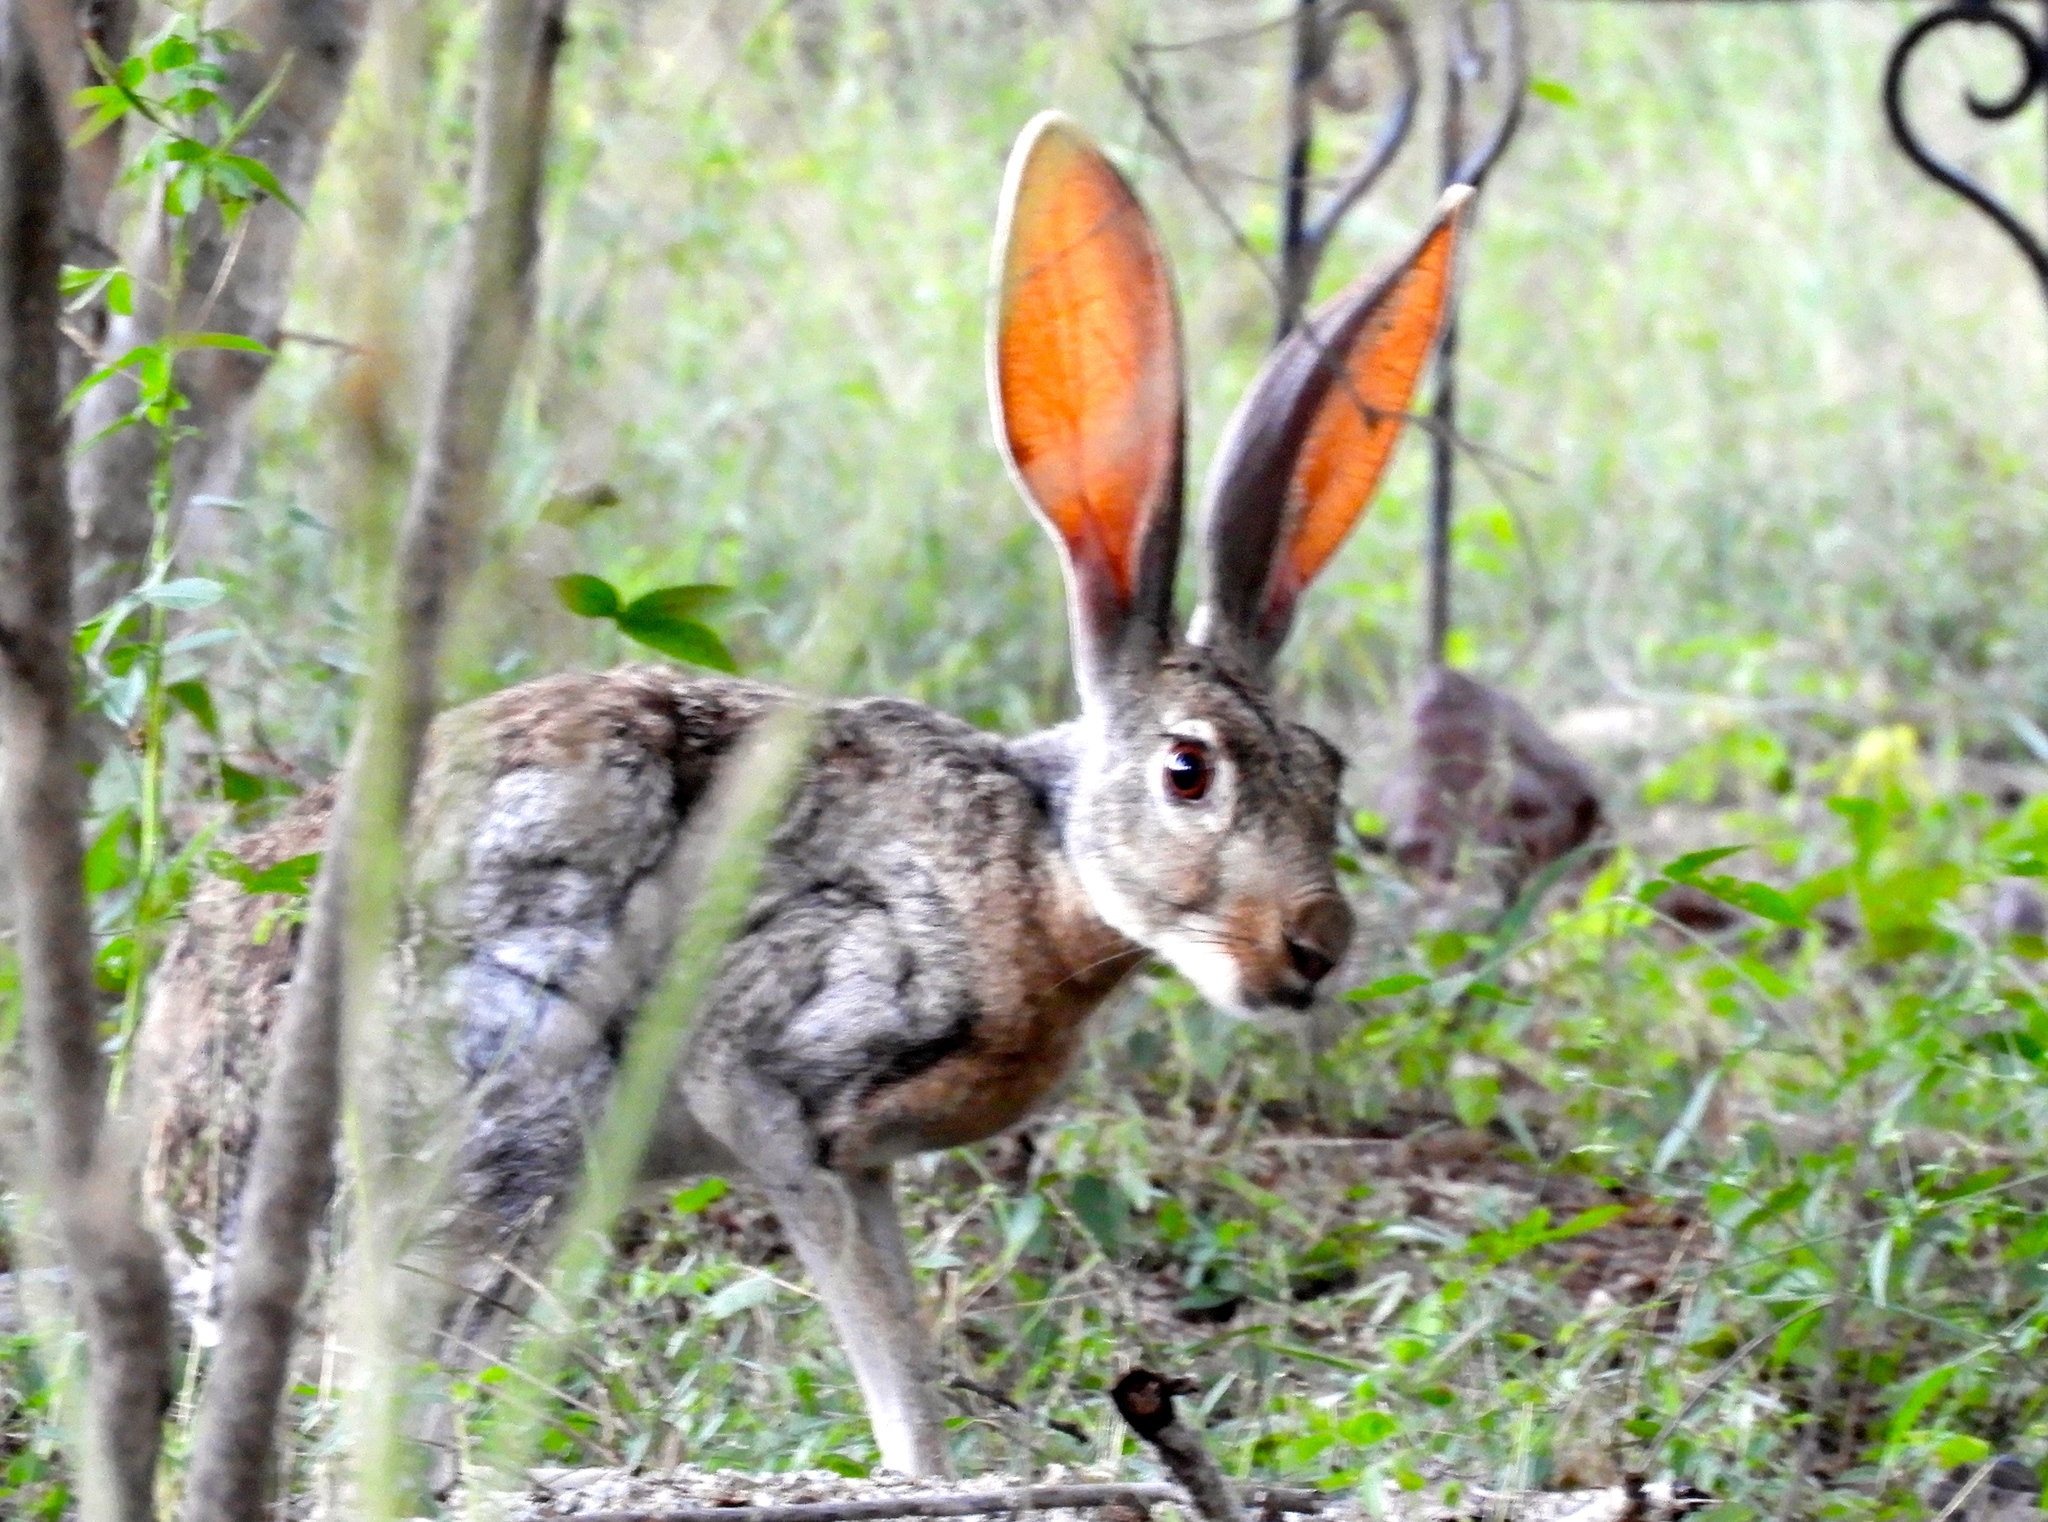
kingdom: Animalia
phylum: Chordata
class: Mammalia
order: Lagomorpha
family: Leporidae
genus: Lepus
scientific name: Lepus alleni
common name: Antelope jackrabbit
